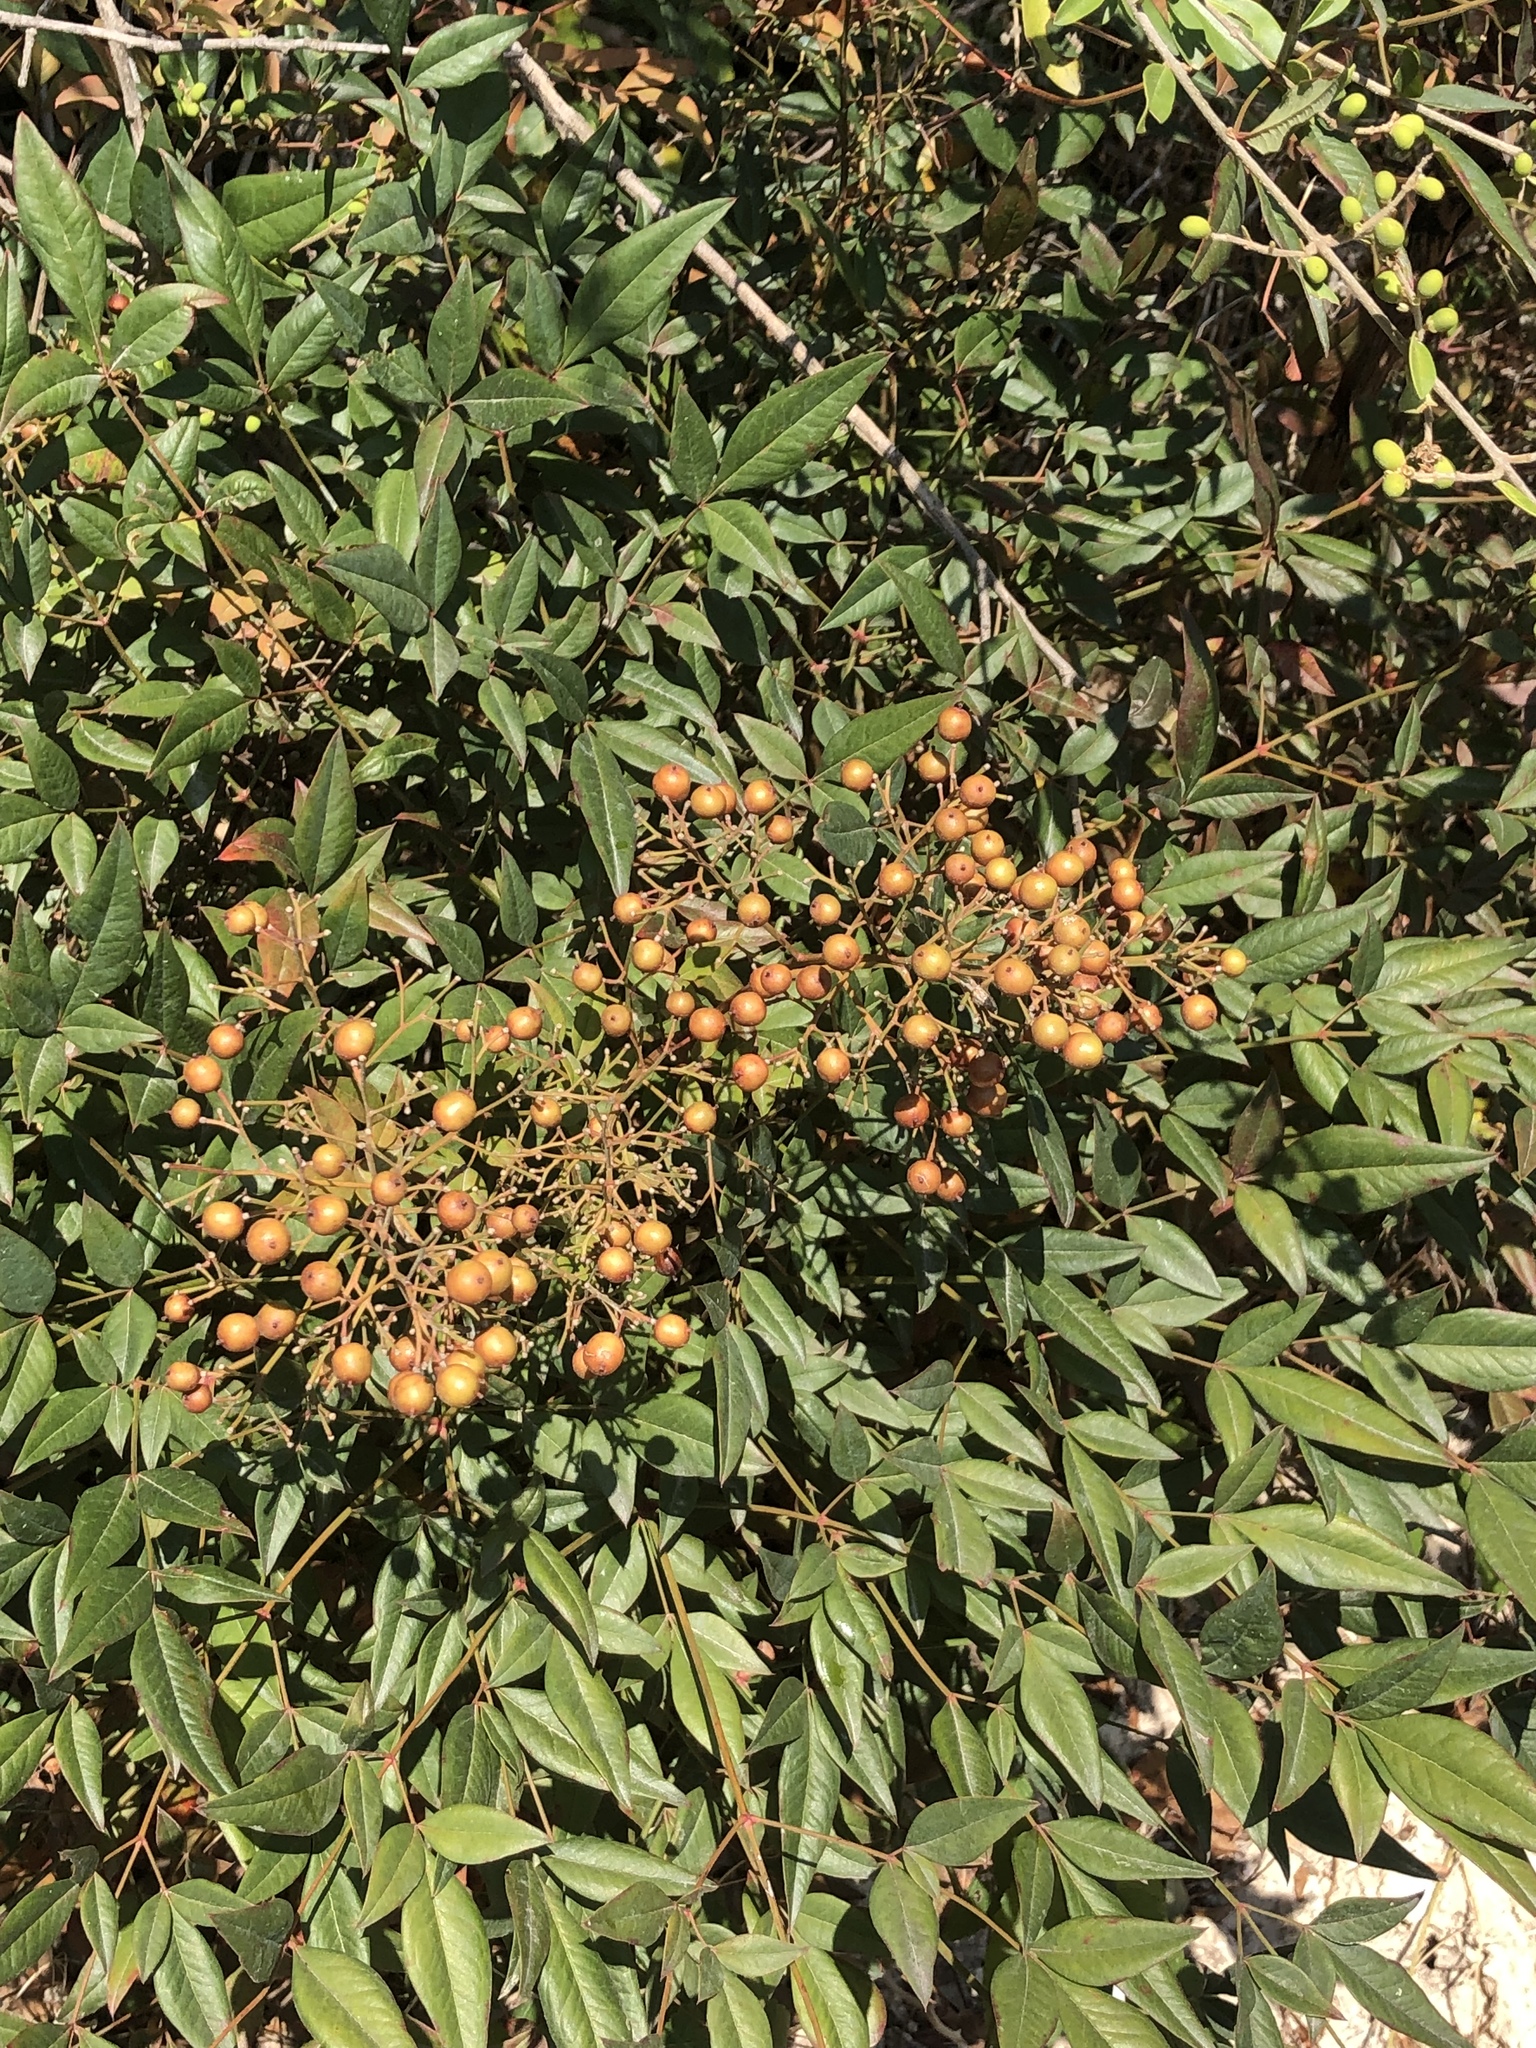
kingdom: Plantae
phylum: Tracheophyta
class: Magnoliopsida
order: Ranunculales
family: Berberidaceae
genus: Nandina
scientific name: Nandina domestica
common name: Sacred bamboo
